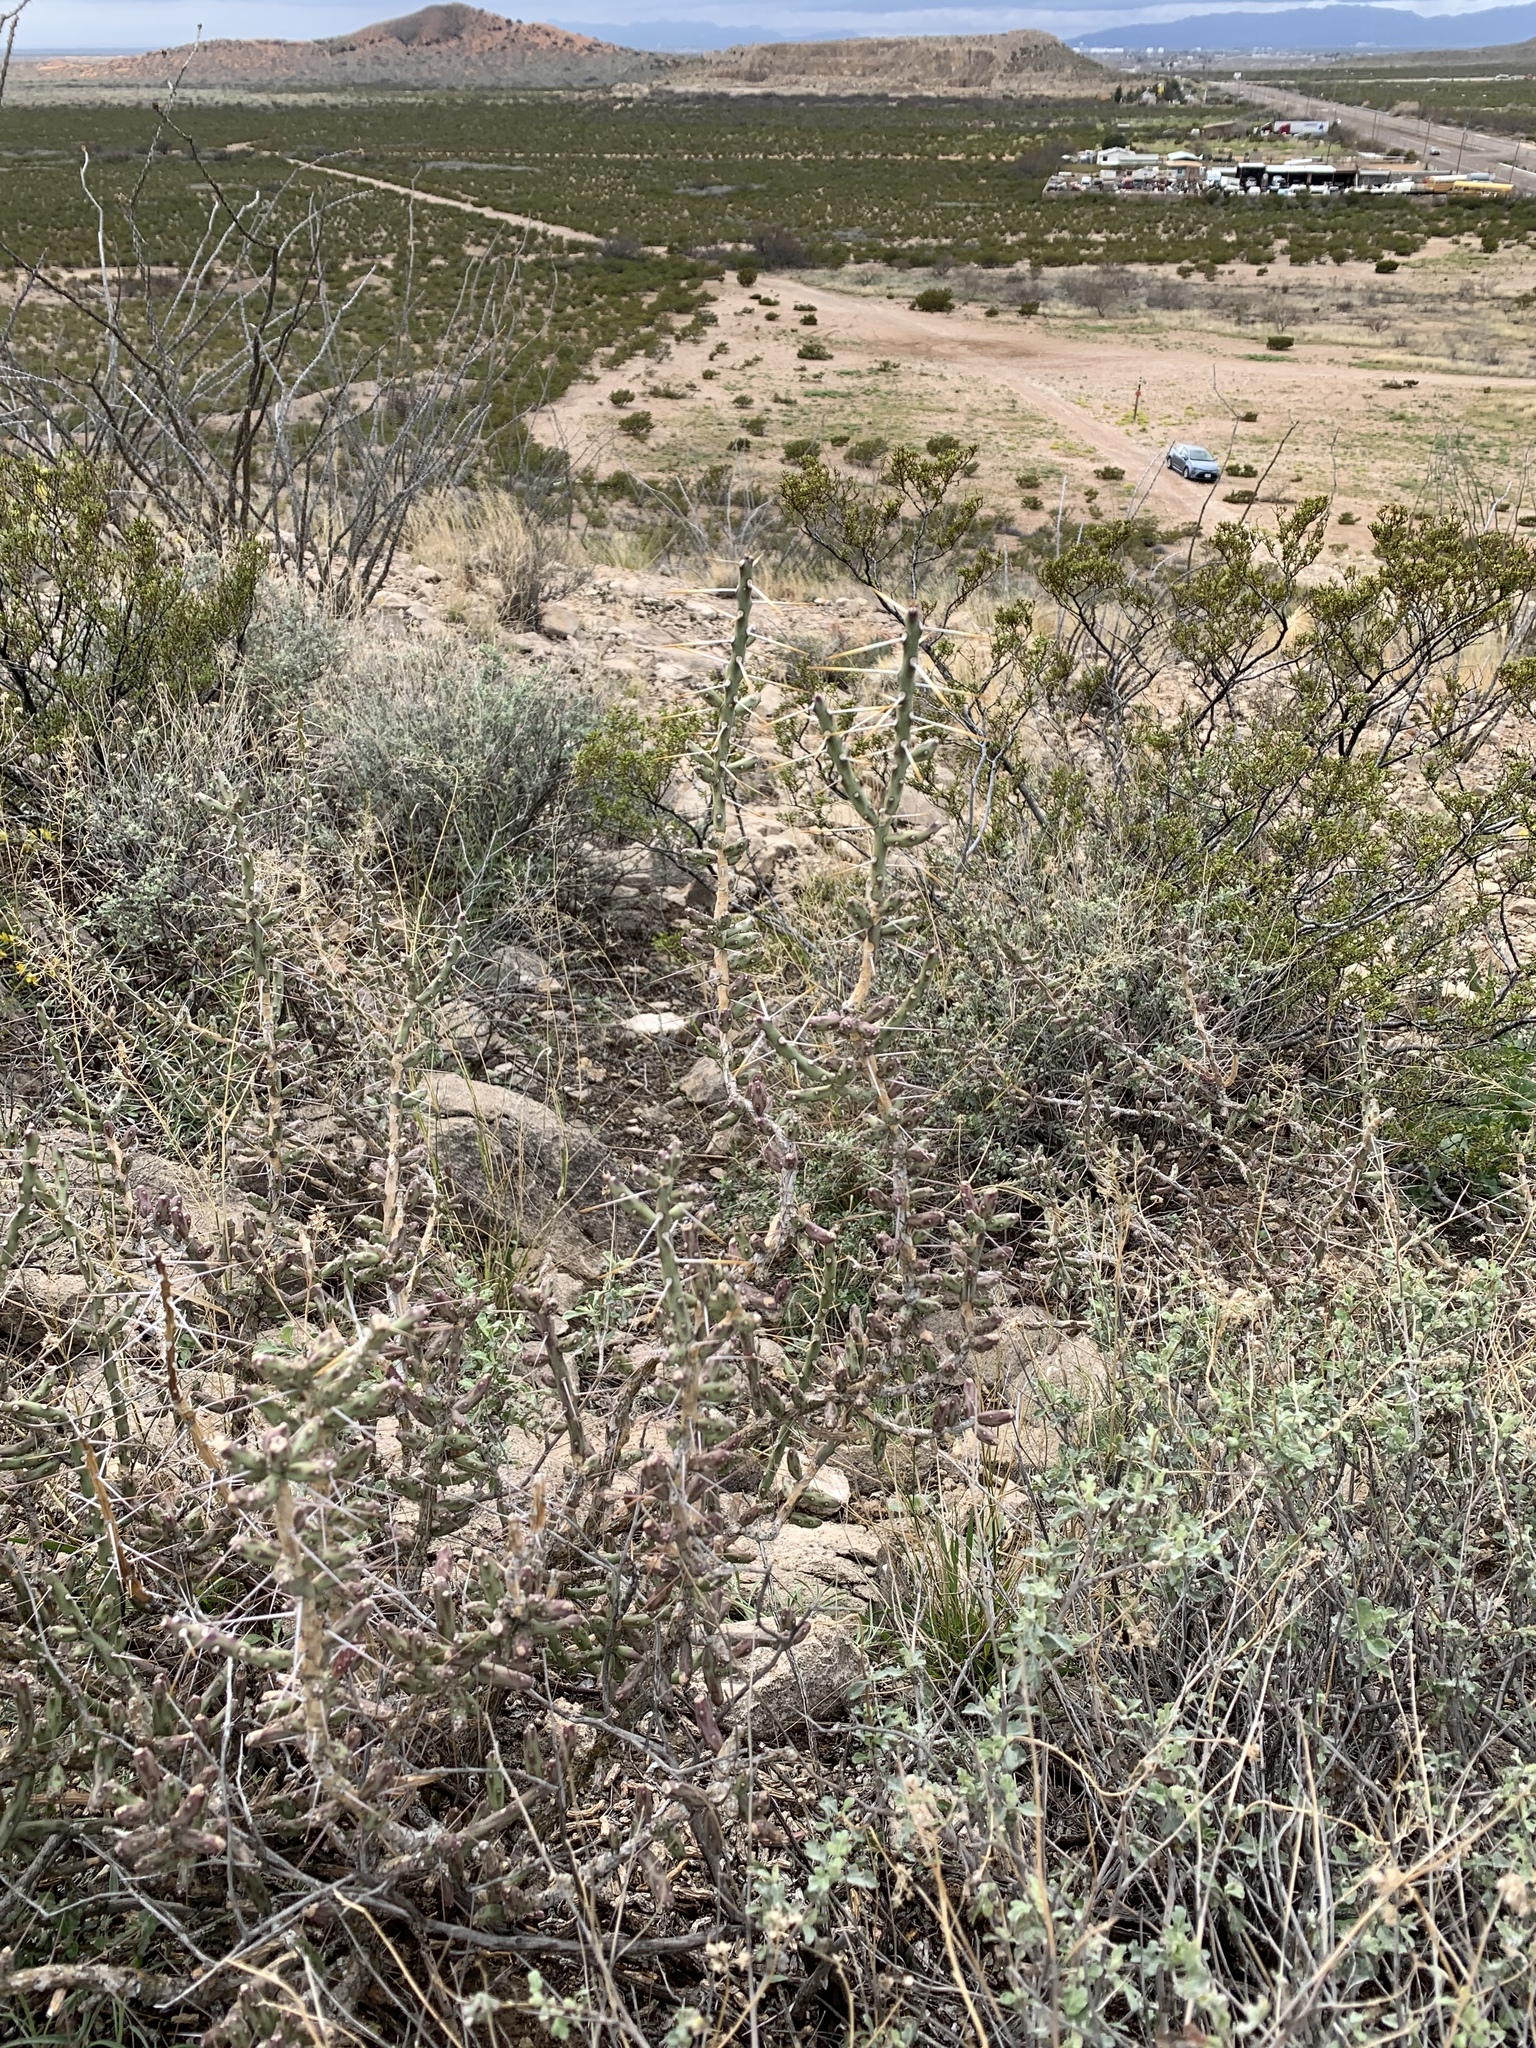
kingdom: Plantae
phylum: Tracheophyta
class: Magnoliopsida
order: Caryophyllales
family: Cactaceae
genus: Cylindropuntia
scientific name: Cylindropuntia leptocaulis
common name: Christmas cactus
